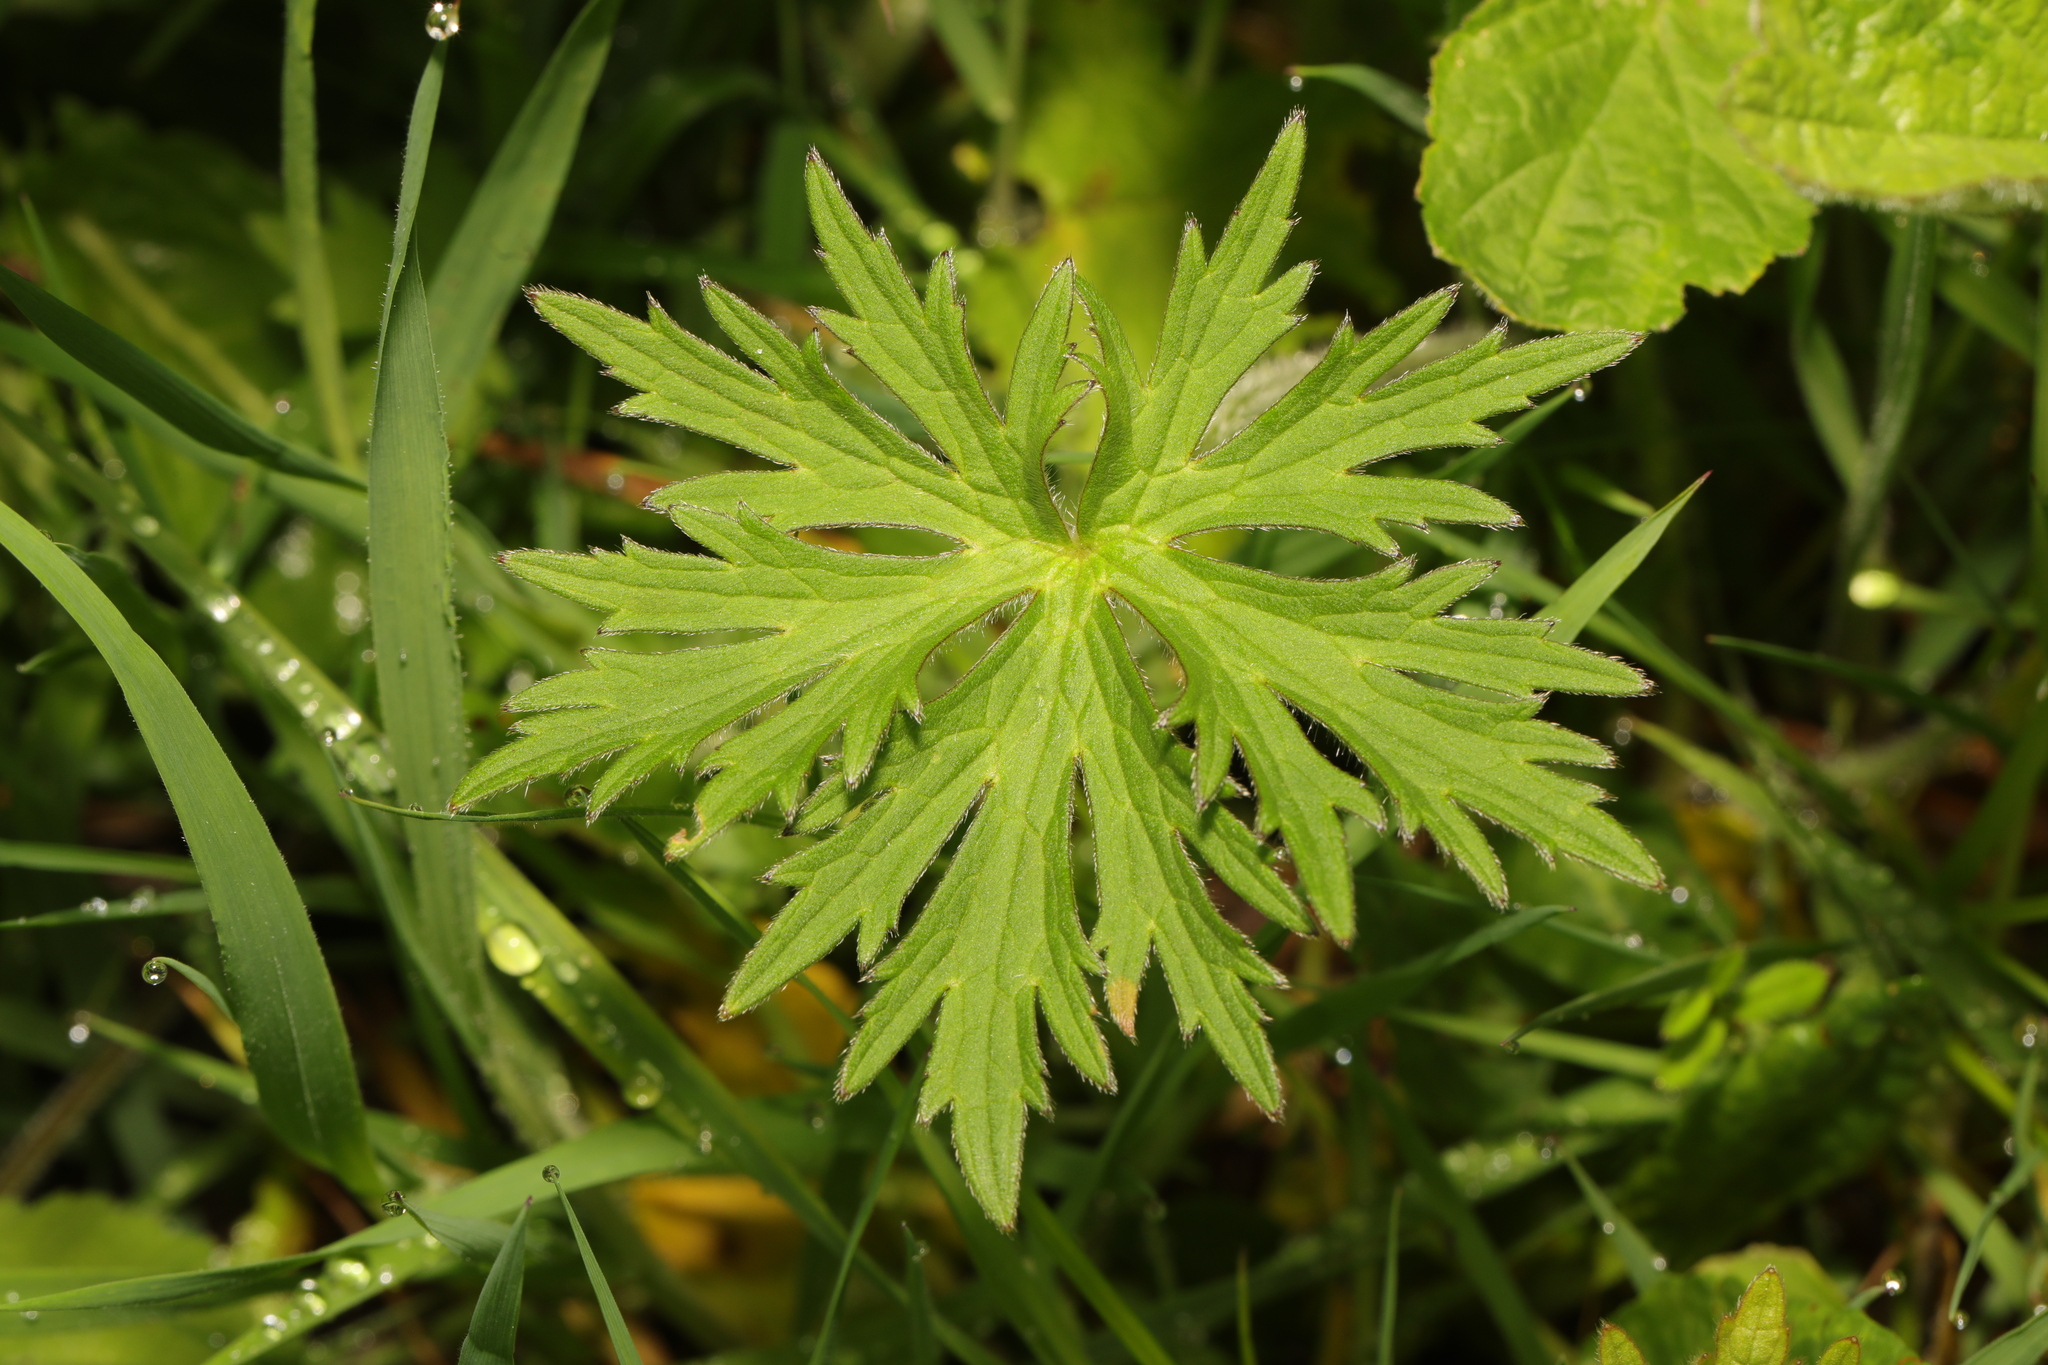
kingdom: Plantae
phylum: Tracheophyta
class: Magnoliopsida
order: Ranunculales
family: Ranunculaceae
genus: Ranunculus
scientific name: Ranunculus acris
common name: Meadow buttercup
